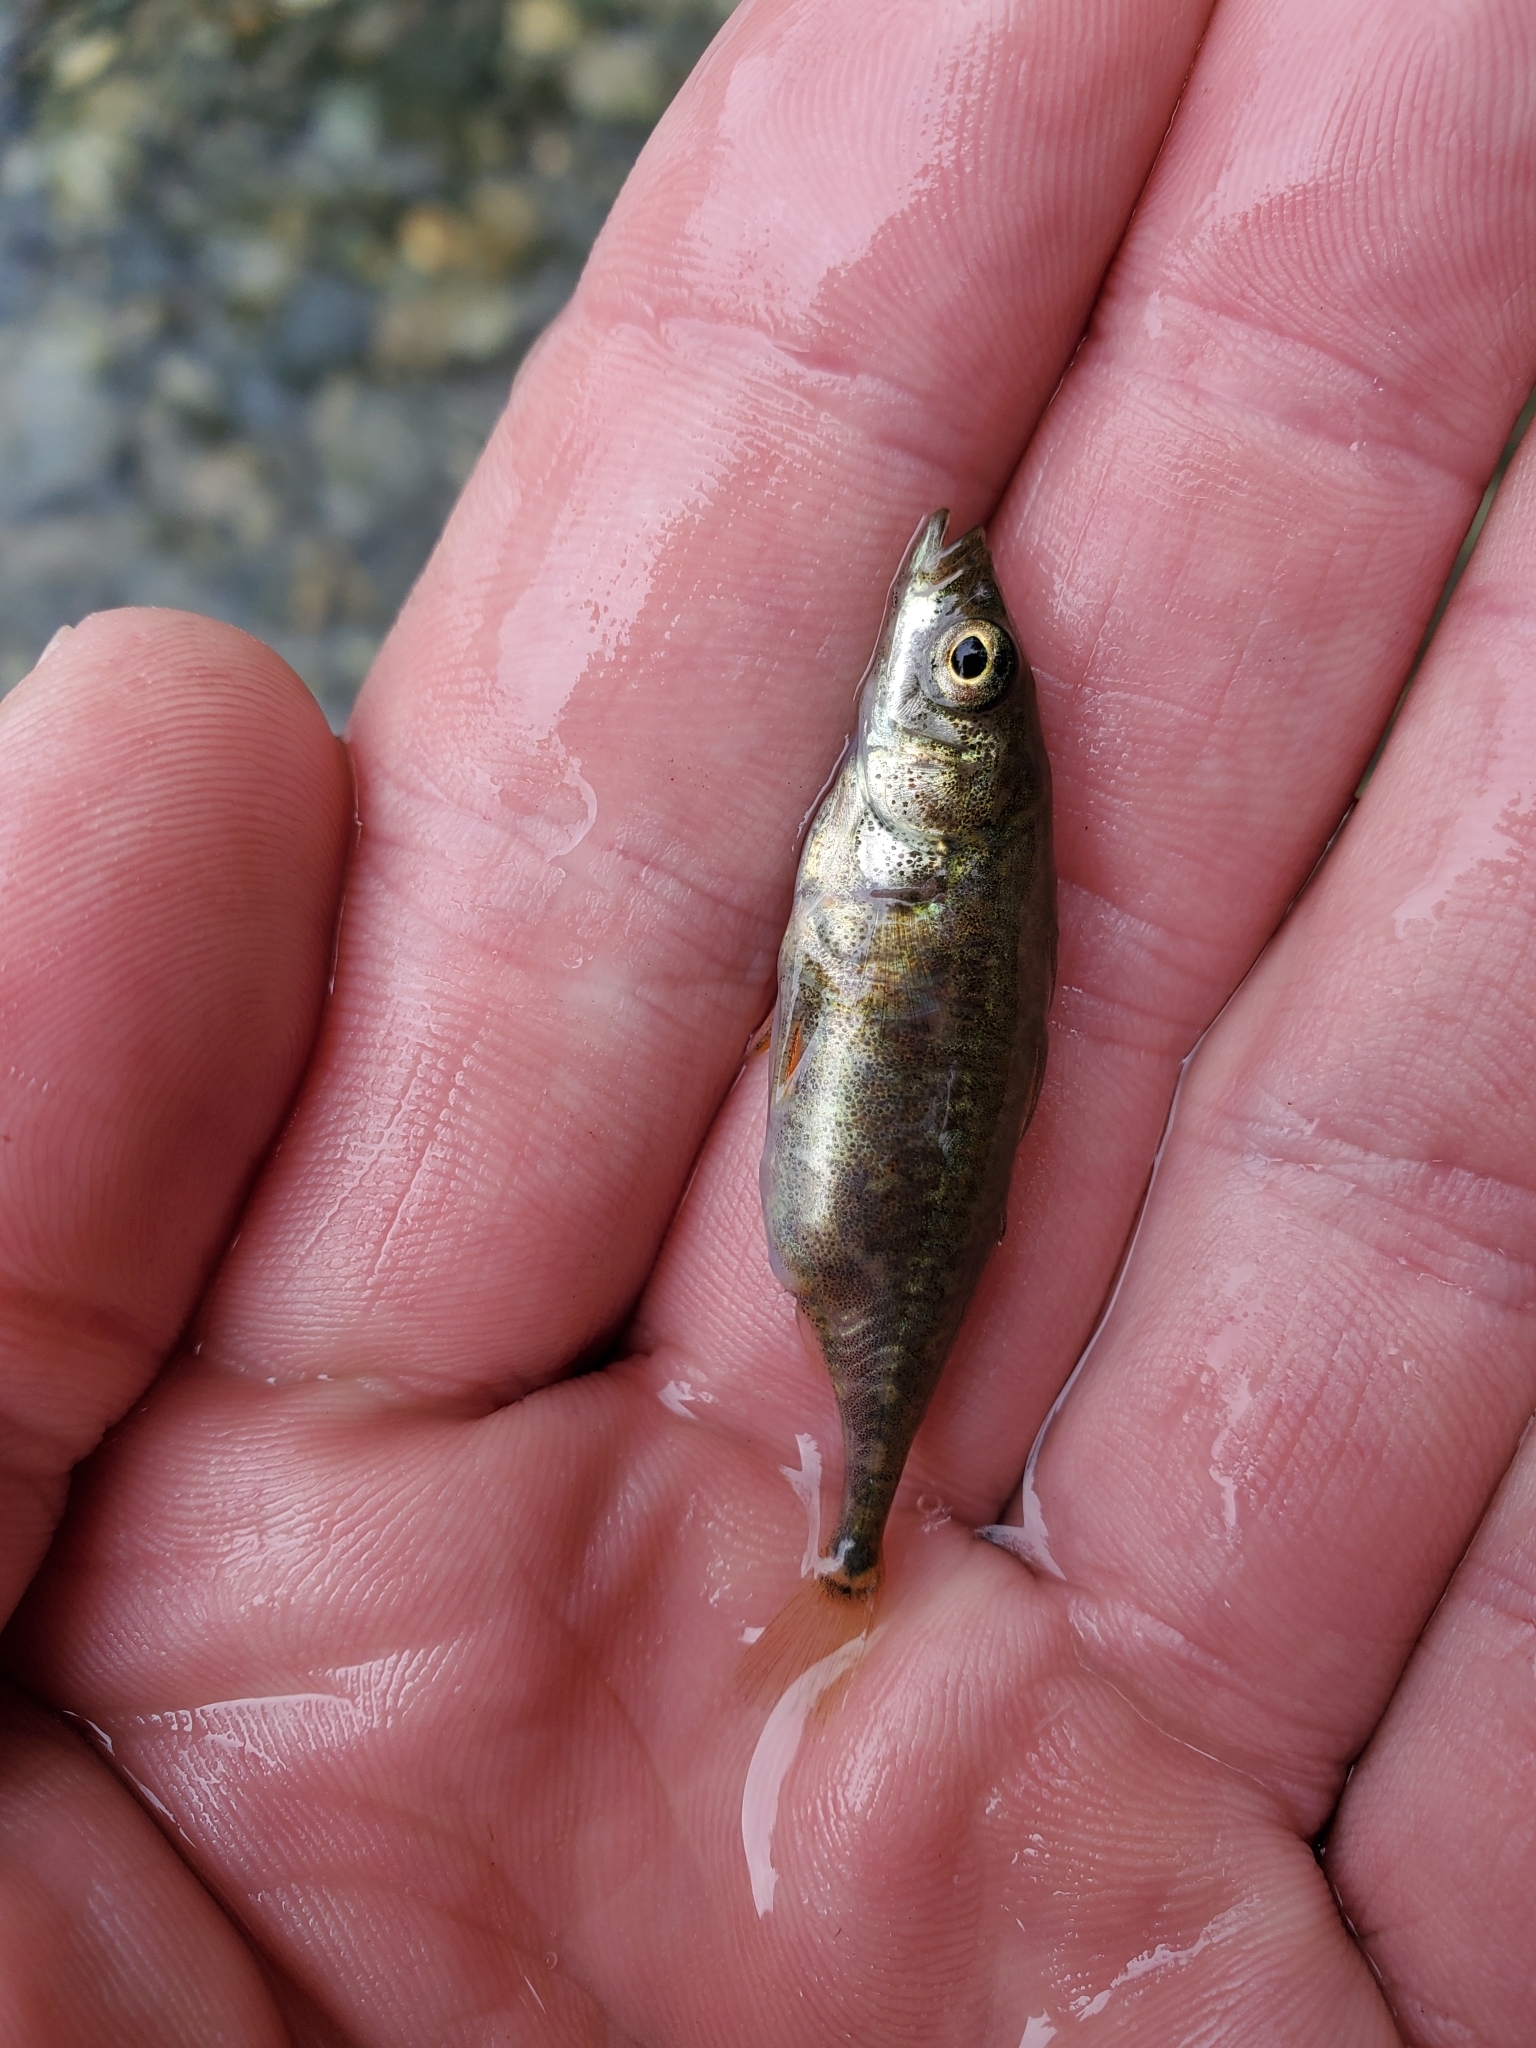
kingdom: Animalia
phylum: Chordata
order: Gasterosteiformes
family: Gasterosteidae
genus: Gasterosteus
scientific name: Gasterosteus aculeatus
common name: Three-spined stickleback
